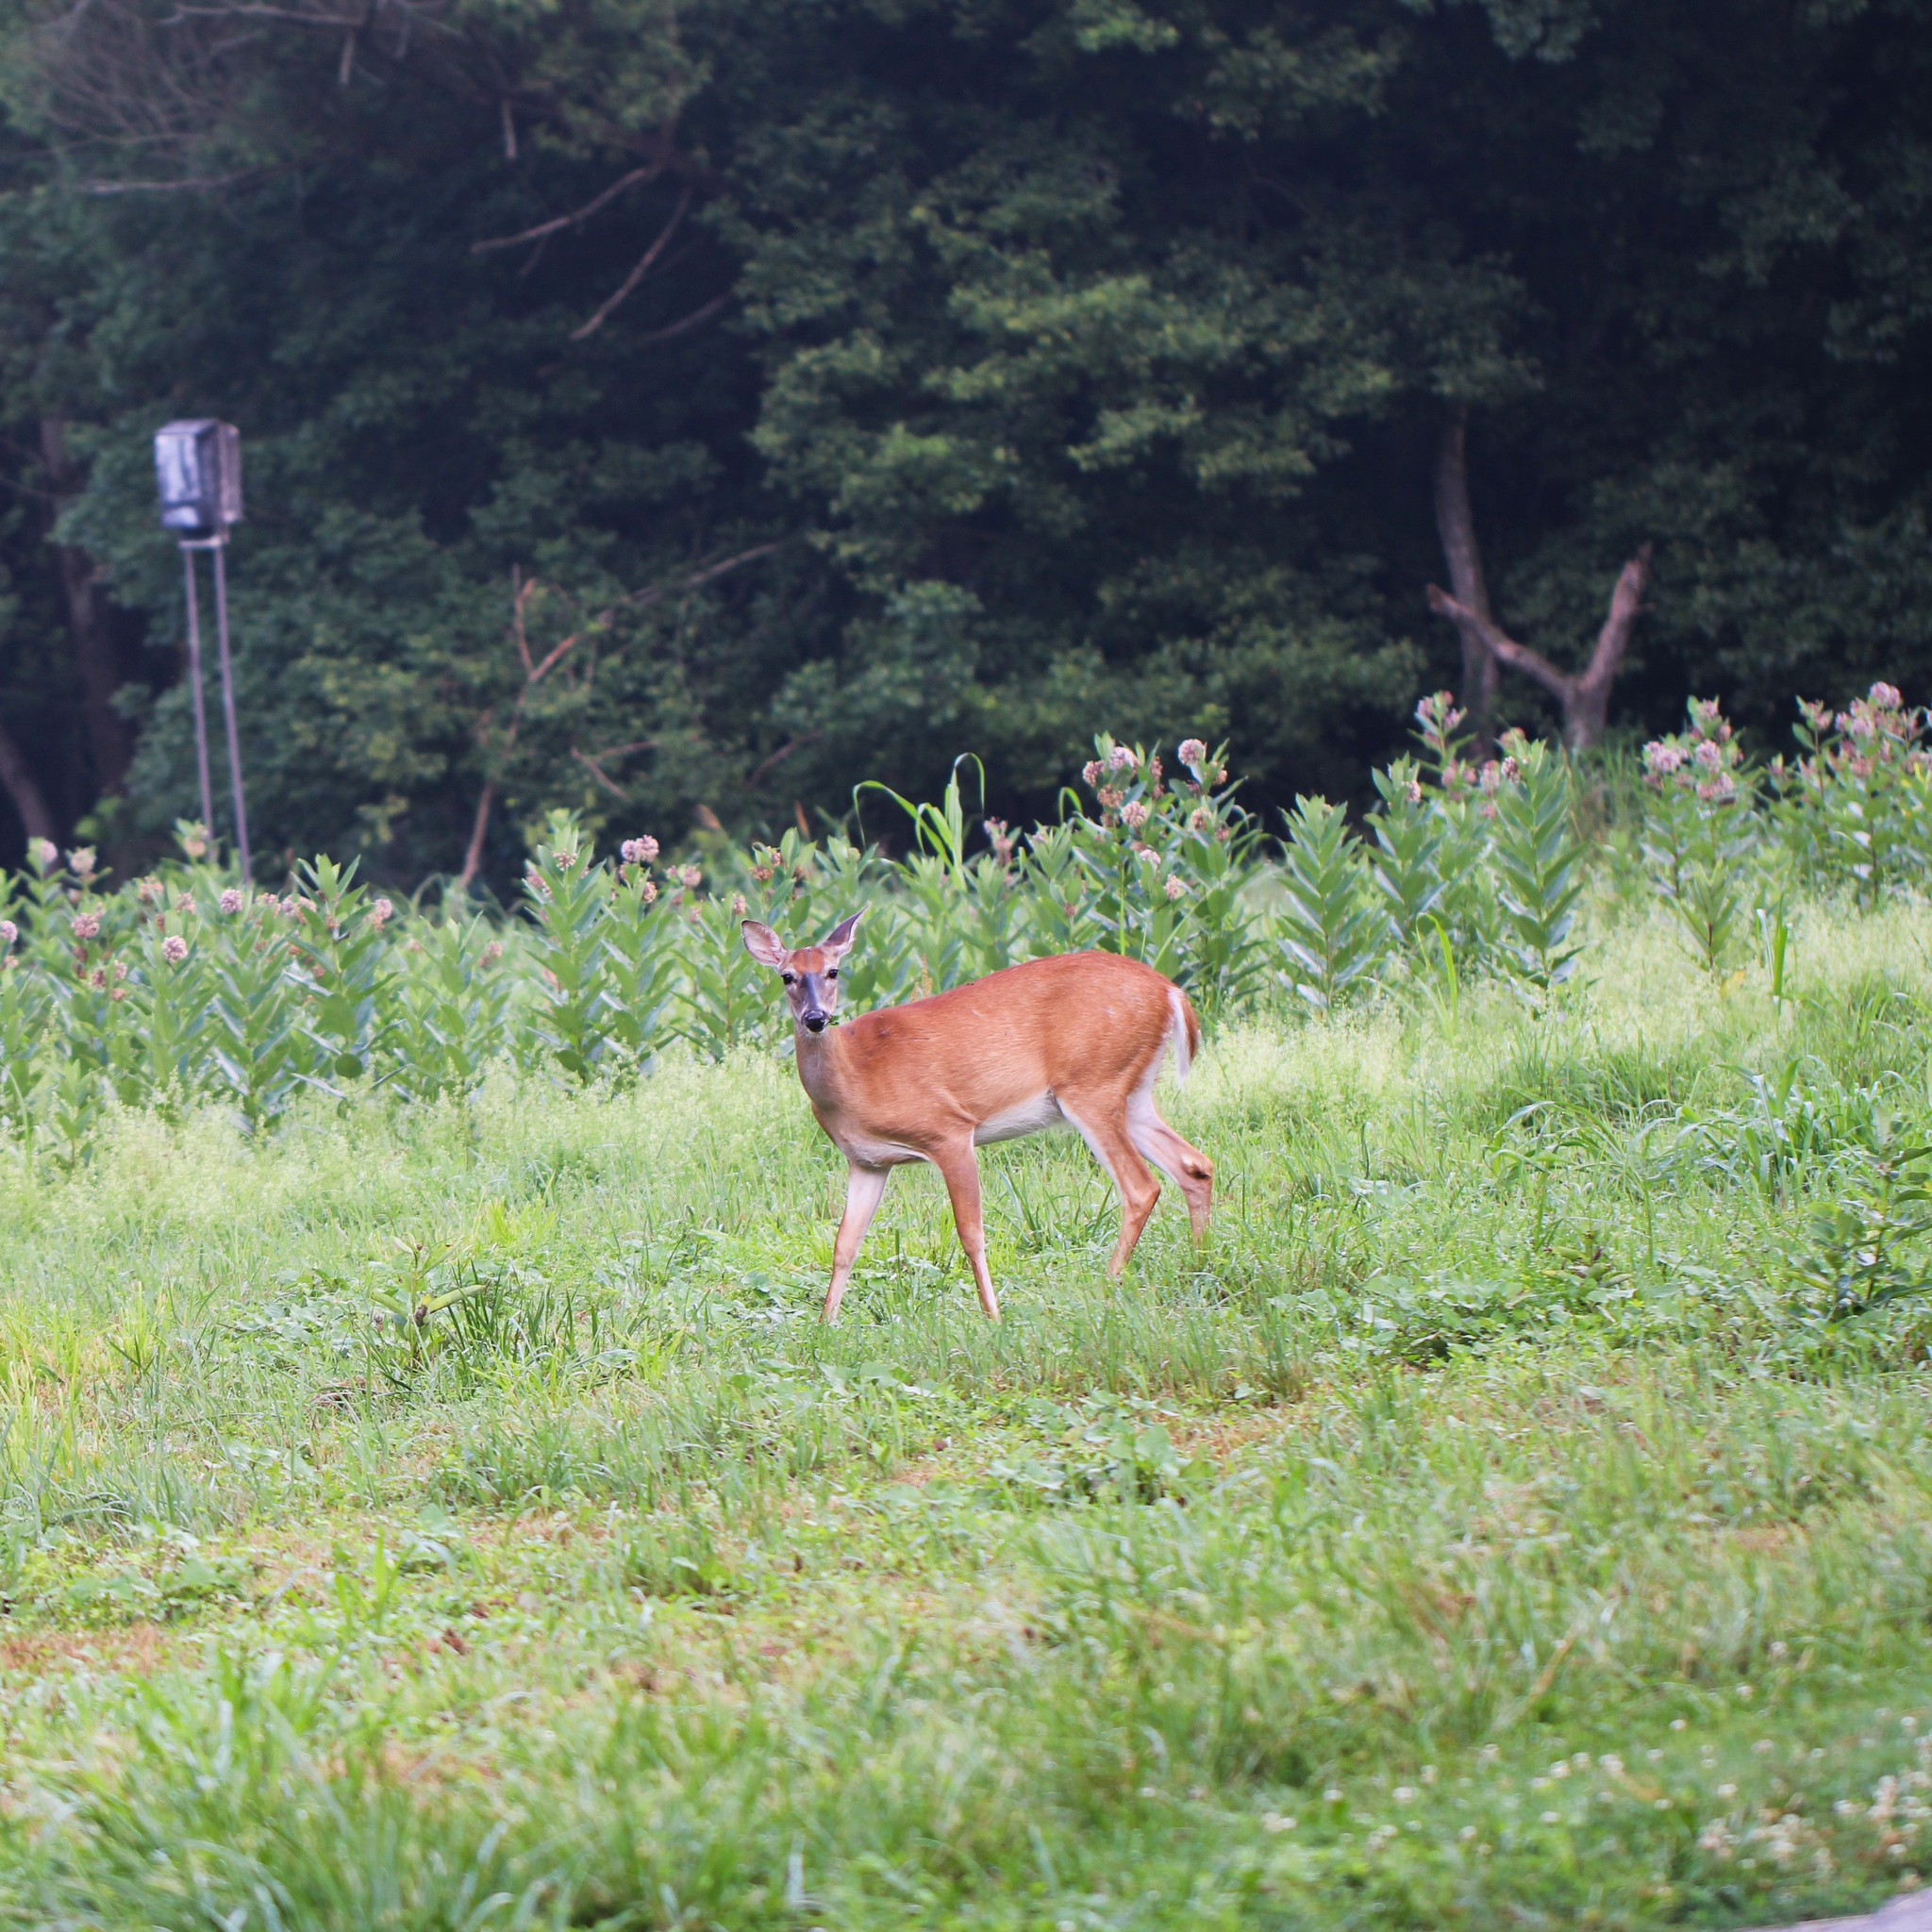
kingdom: Animalia
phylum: Chordata
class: Mammalia
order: Artiodactyla
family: Cervidae
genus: Odocoileus
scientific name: Odocoileus virginianus
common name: White-tailed deer
